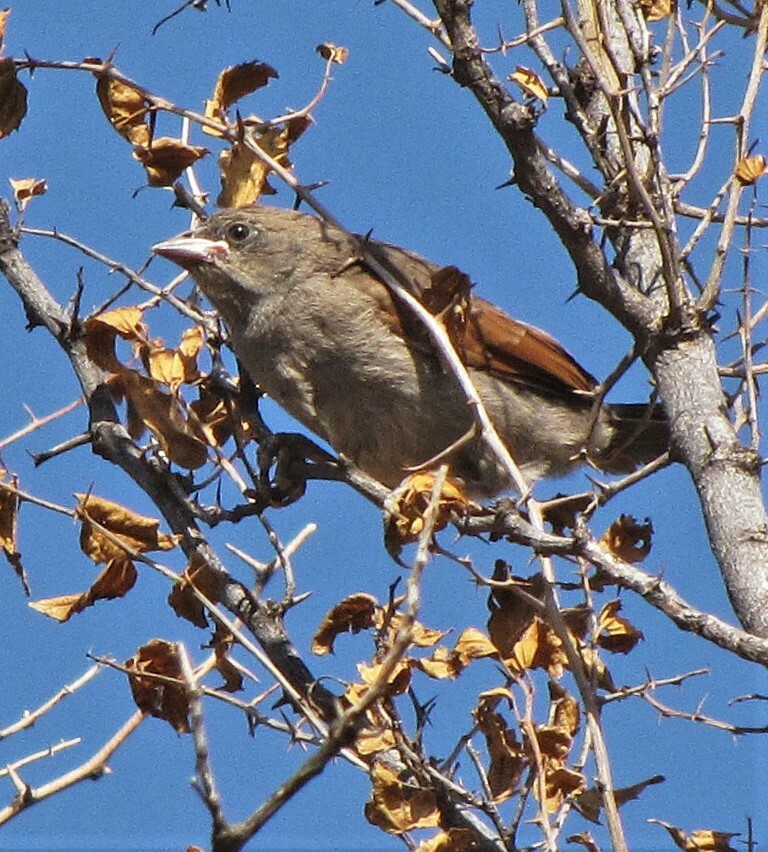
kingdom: Animalia
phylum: Chordata
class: Aves
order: Passeriformes
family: Icteridae
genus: Agelaioides
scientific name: Agelaioides badius
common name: Baywing
